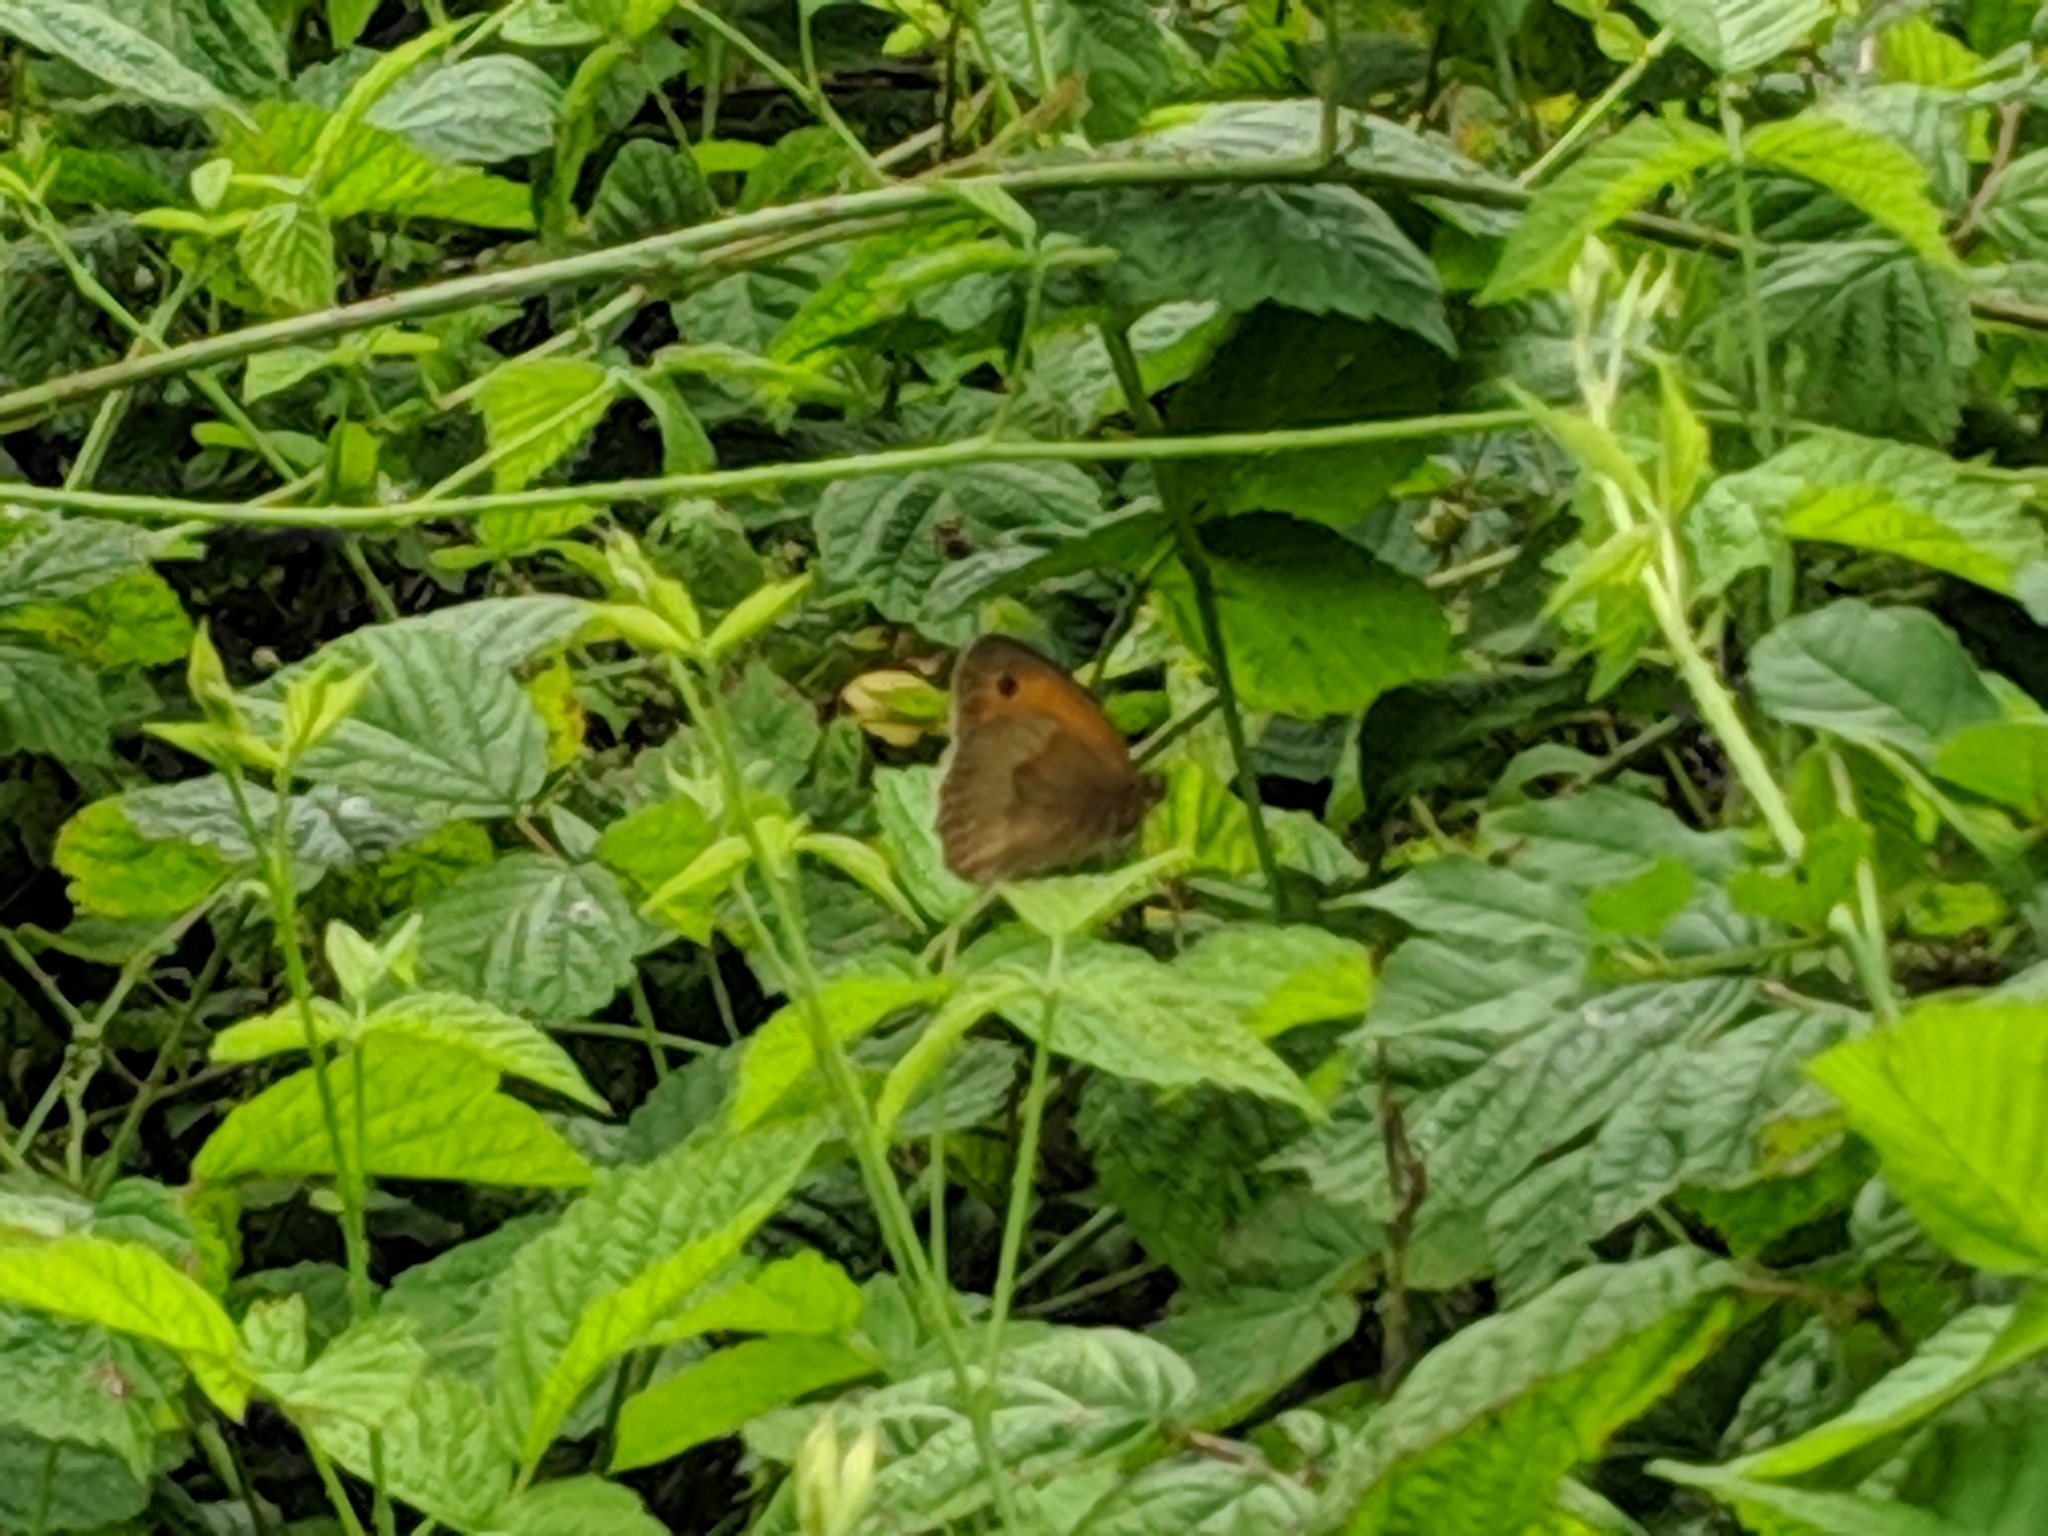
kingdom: Animalia
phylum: Arthropoda
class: Insecta
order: Lepidoptera
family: Nymphalidae
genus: Maniola
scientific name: Maniola jurtina
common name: Meadow brown
